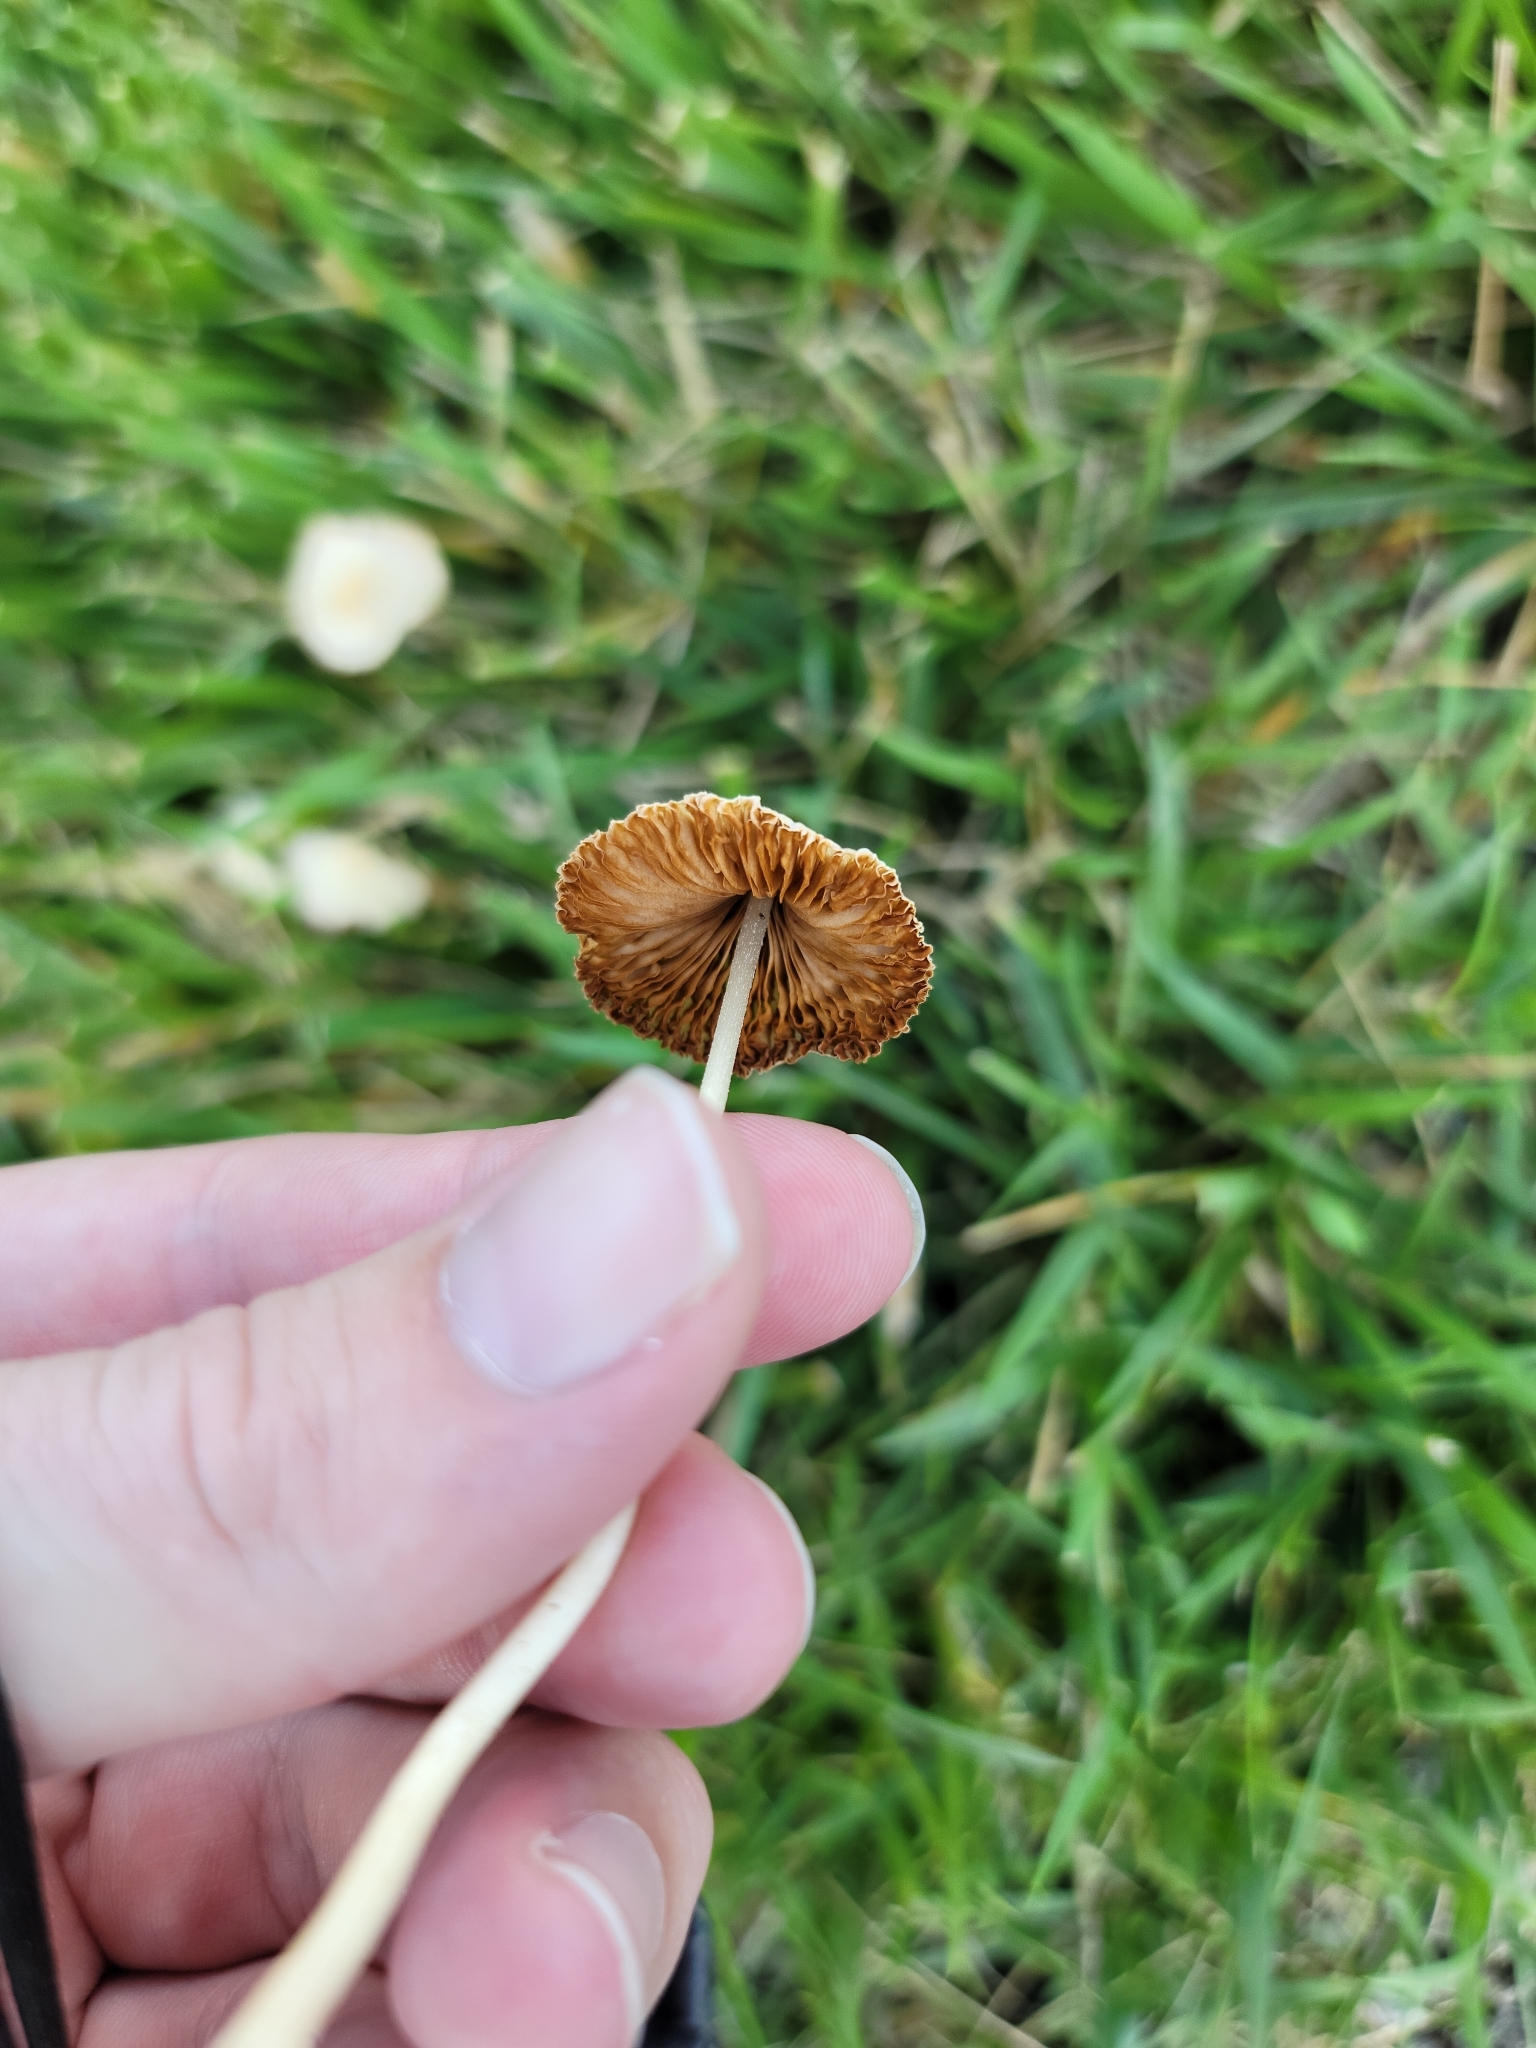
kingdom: Fungi
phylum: Basidiomycota
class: Agaricomycetes
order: Agaricales
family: Bolbitiaceae
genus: Conocybe
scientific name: Conocybe apala
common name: Milky conecap
